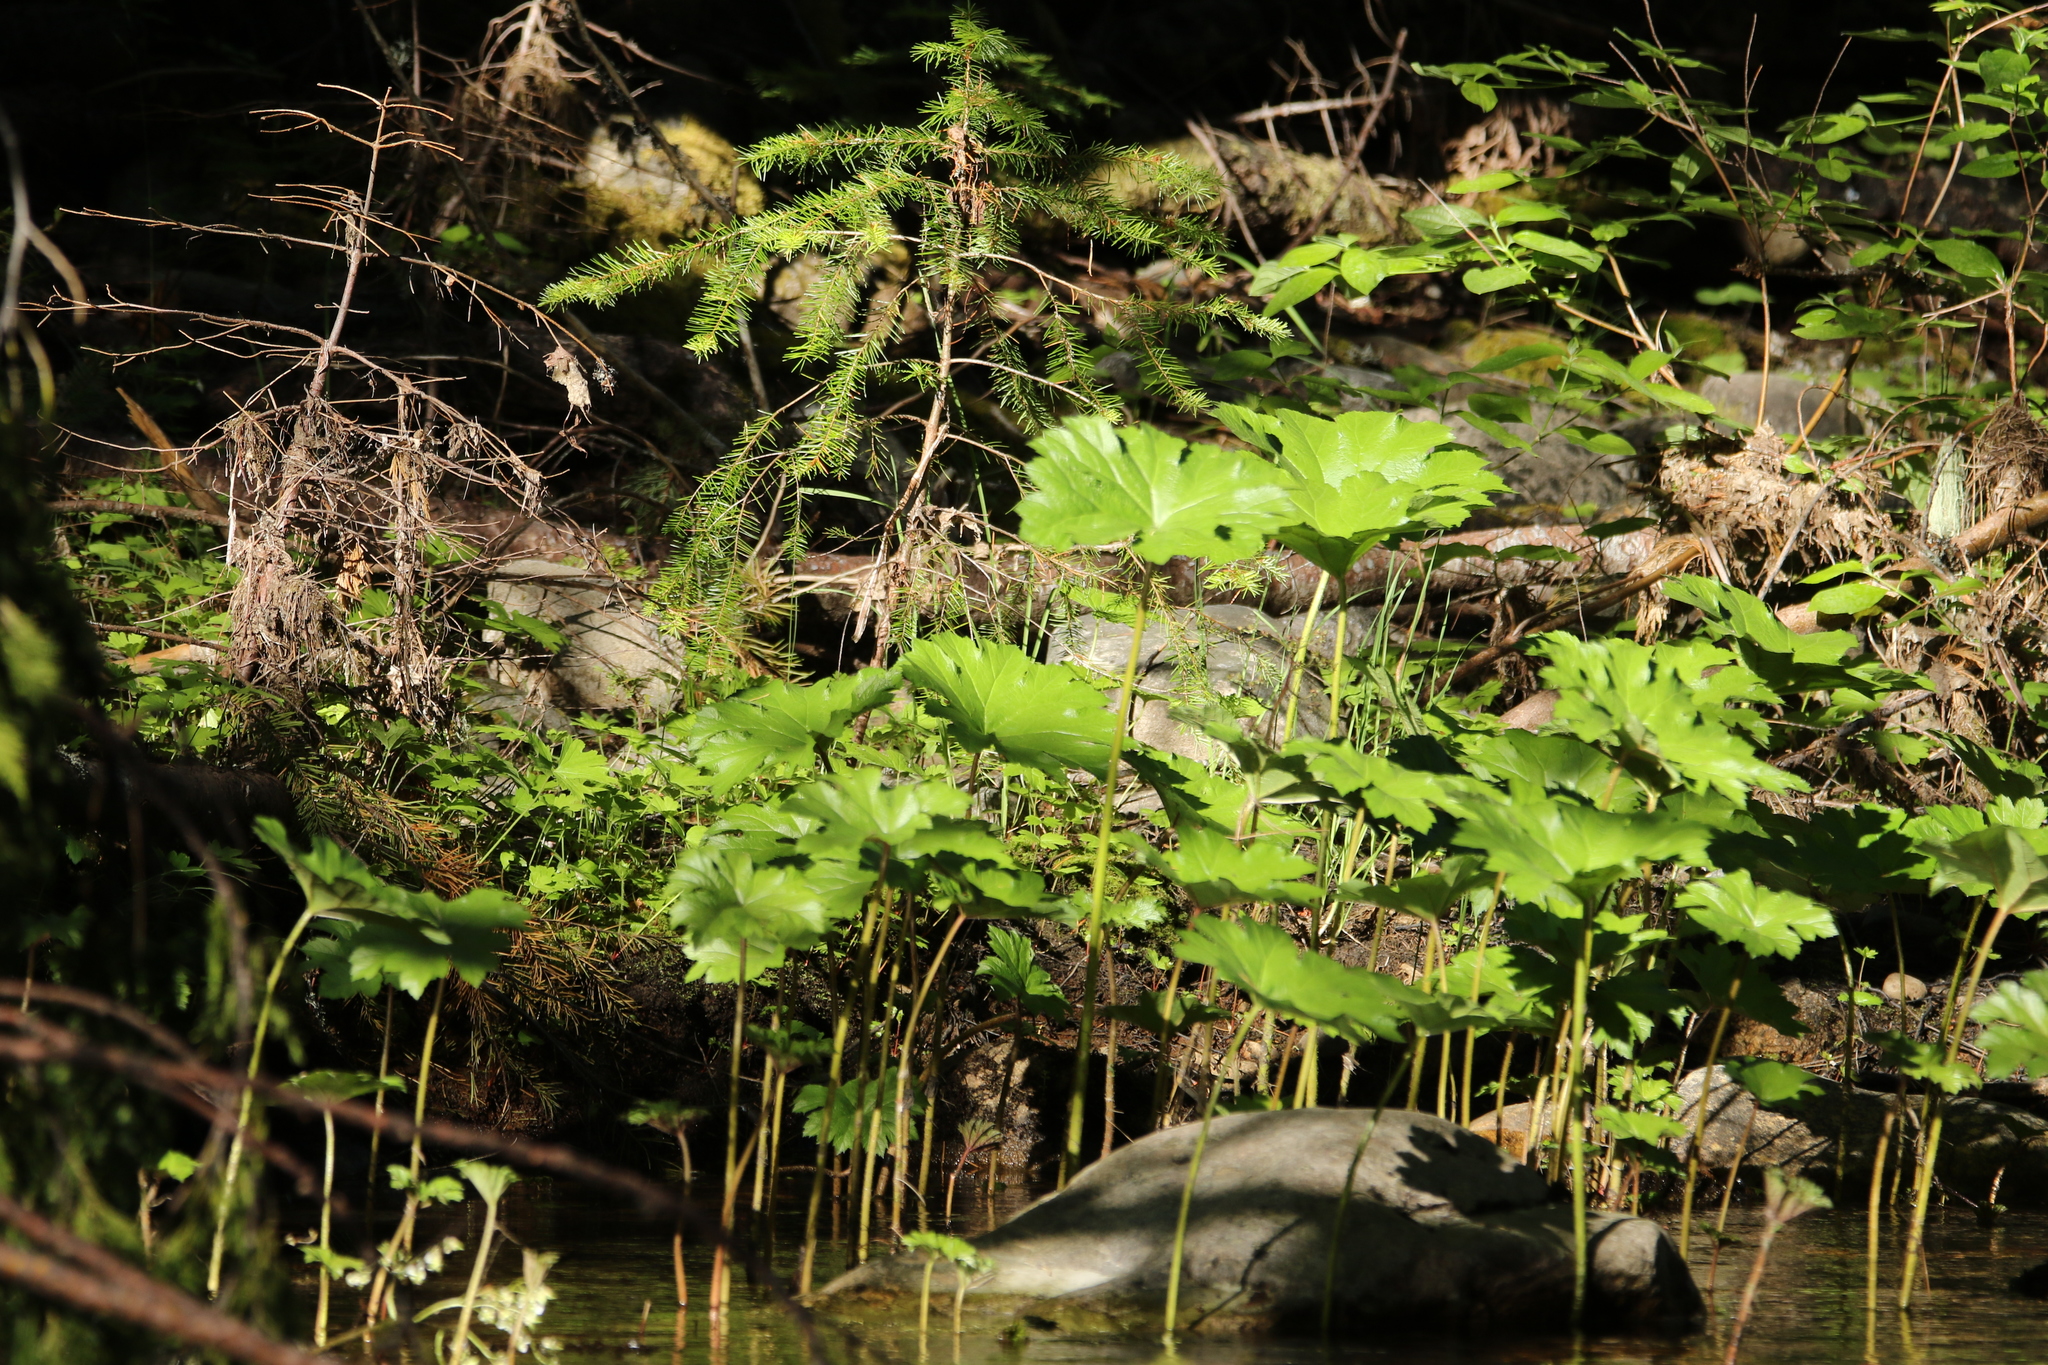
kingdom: Plantae
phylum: Tracheophyta
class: Magnoliopsida
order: Saxifragales
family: Saxifragaceae
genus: Darmera
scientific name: Darmera peltata
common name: Indian-rhubarb
